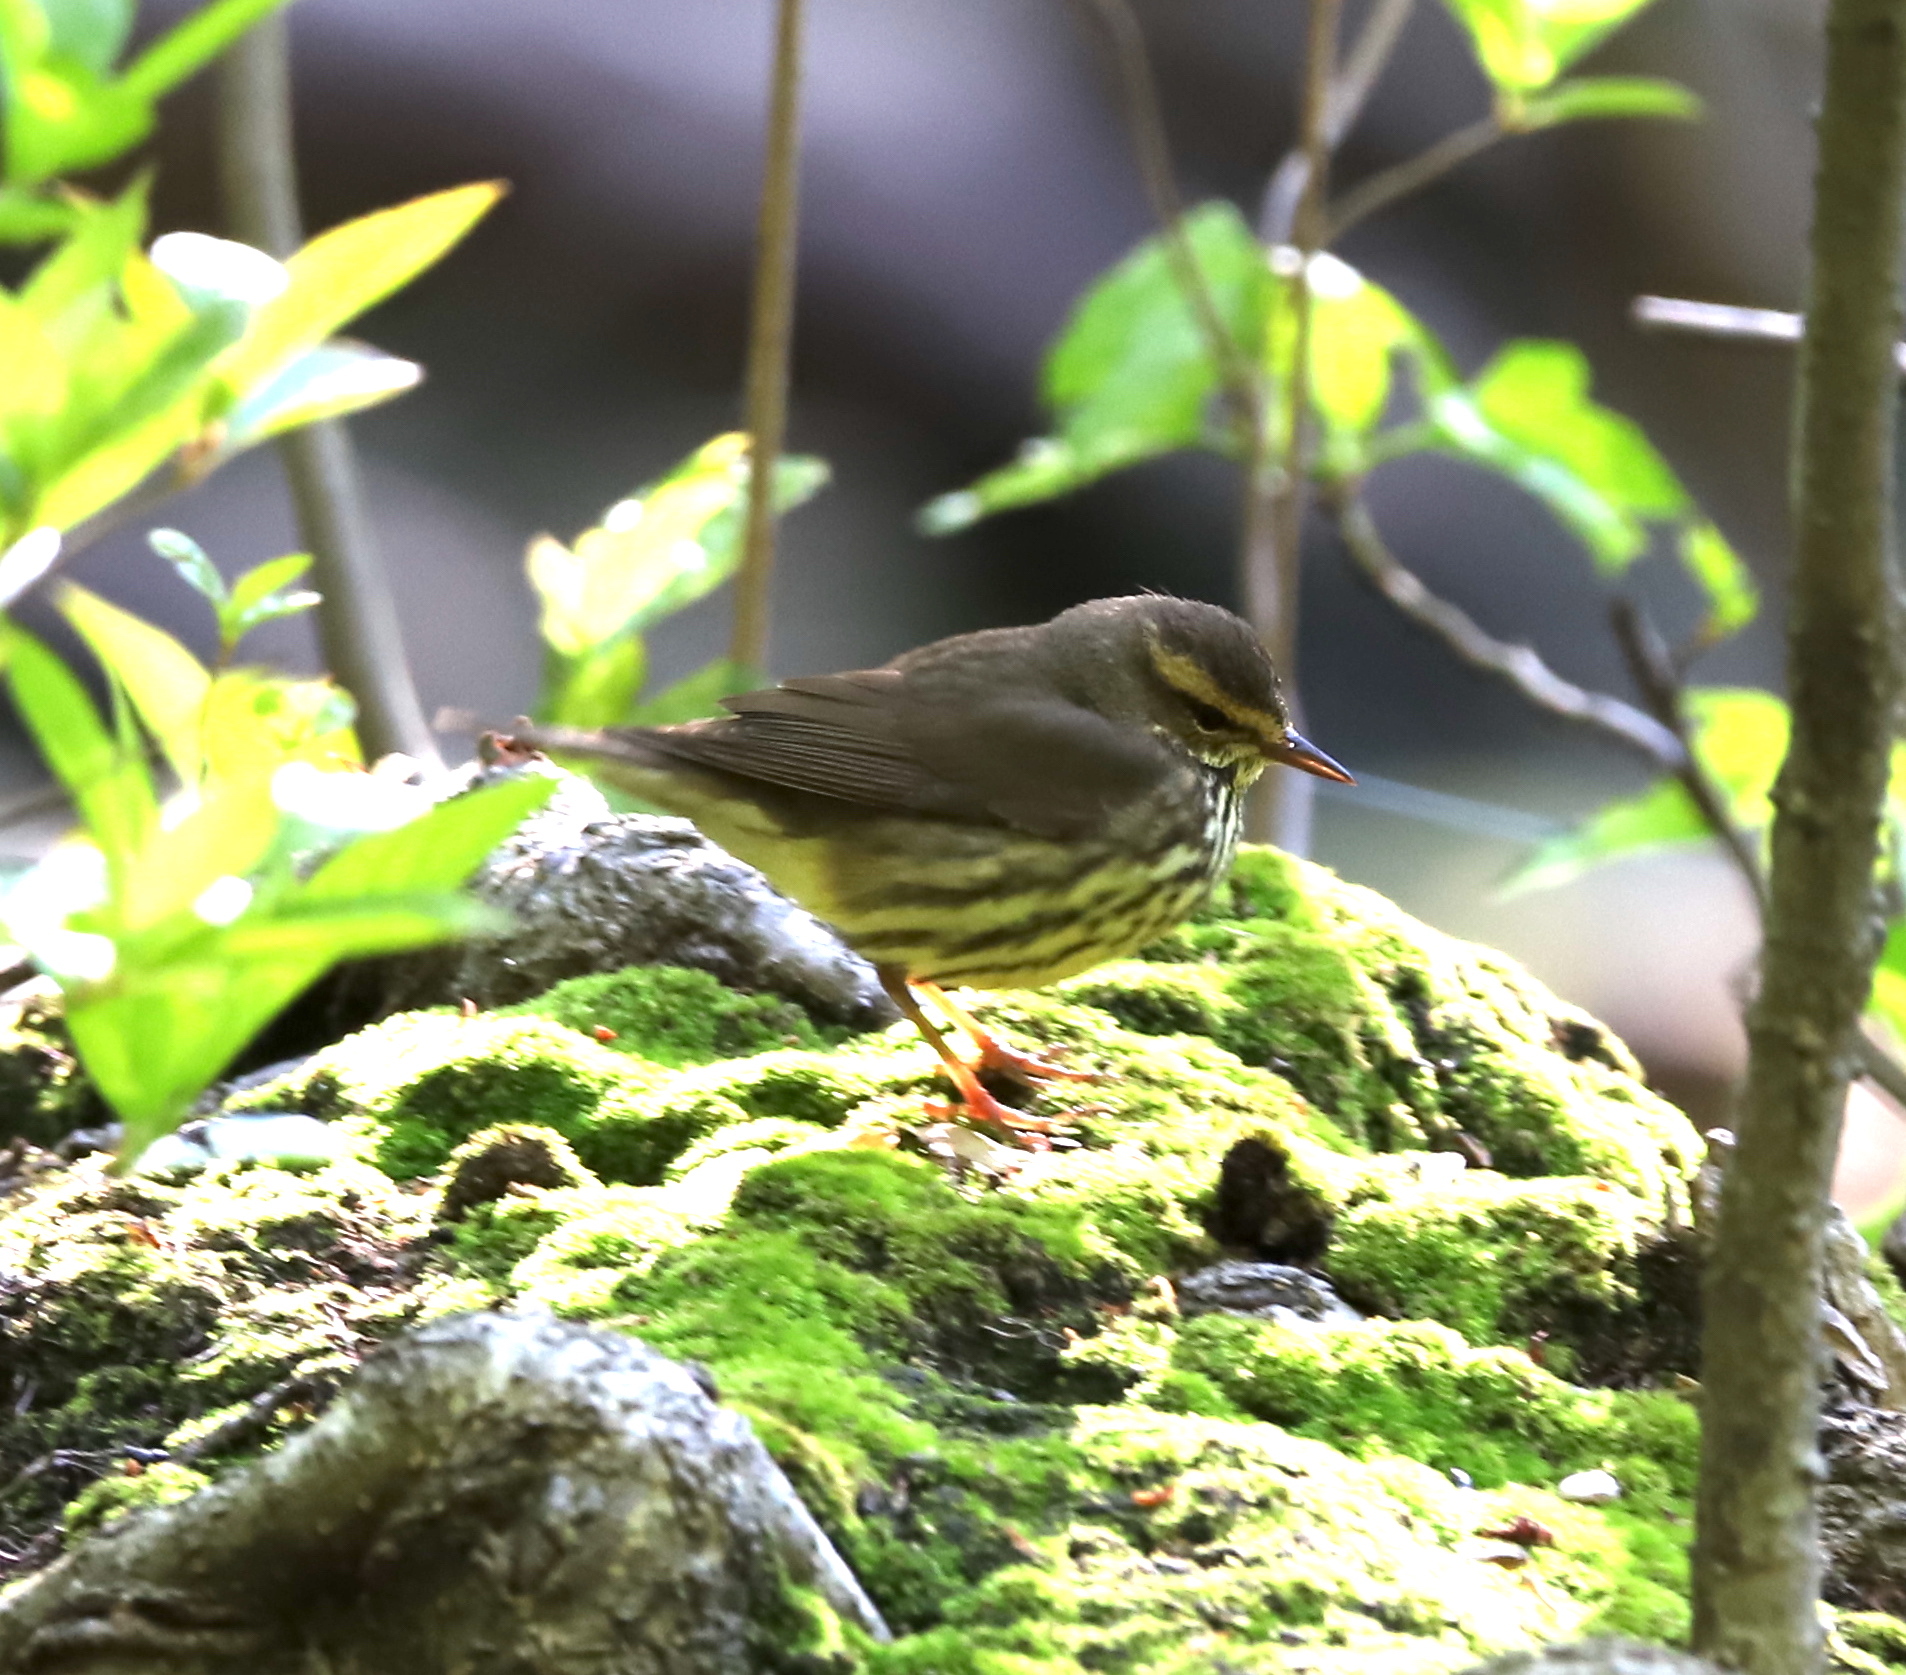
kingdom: Animalia
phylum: Chordata
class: Aves
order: Passeriformes
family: Parulidae
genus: Parkesia
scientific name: Parkesia noveboracensis
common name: Northern waterthrush
